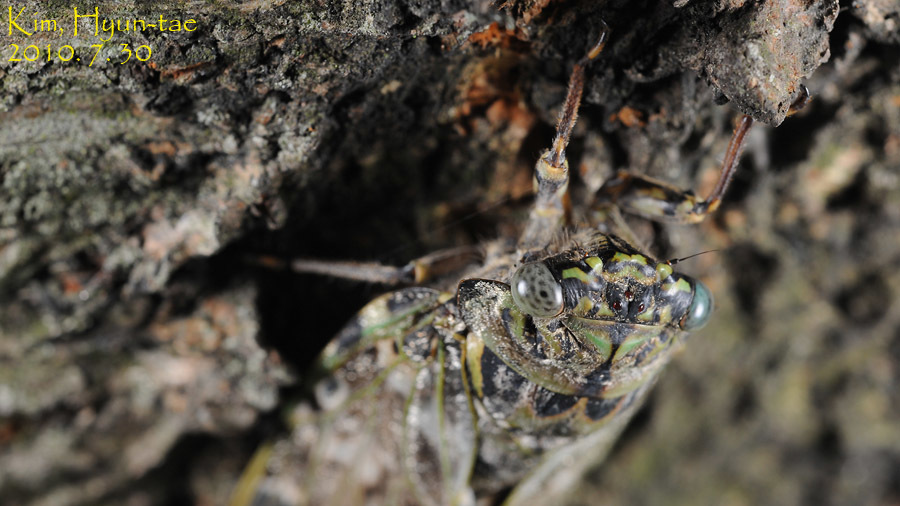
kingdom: Animalia
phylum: Arthropoda
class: Insecta
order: Hemiptera
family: Cicadidae
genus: Platypleura
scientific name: Platypleura kaempferi
